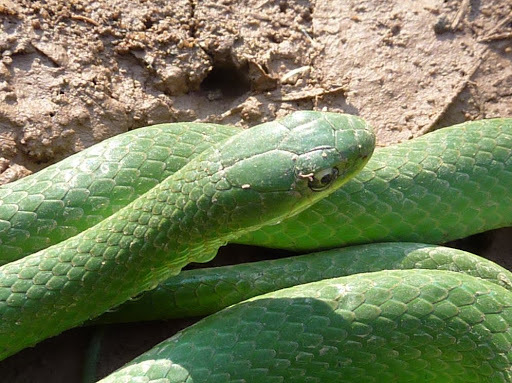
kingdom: Animalia
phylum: Chordata
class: Squamata
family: Colubridae
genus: Opheodrys
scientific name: Opheodrys vernalis
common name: Smooth green snake
